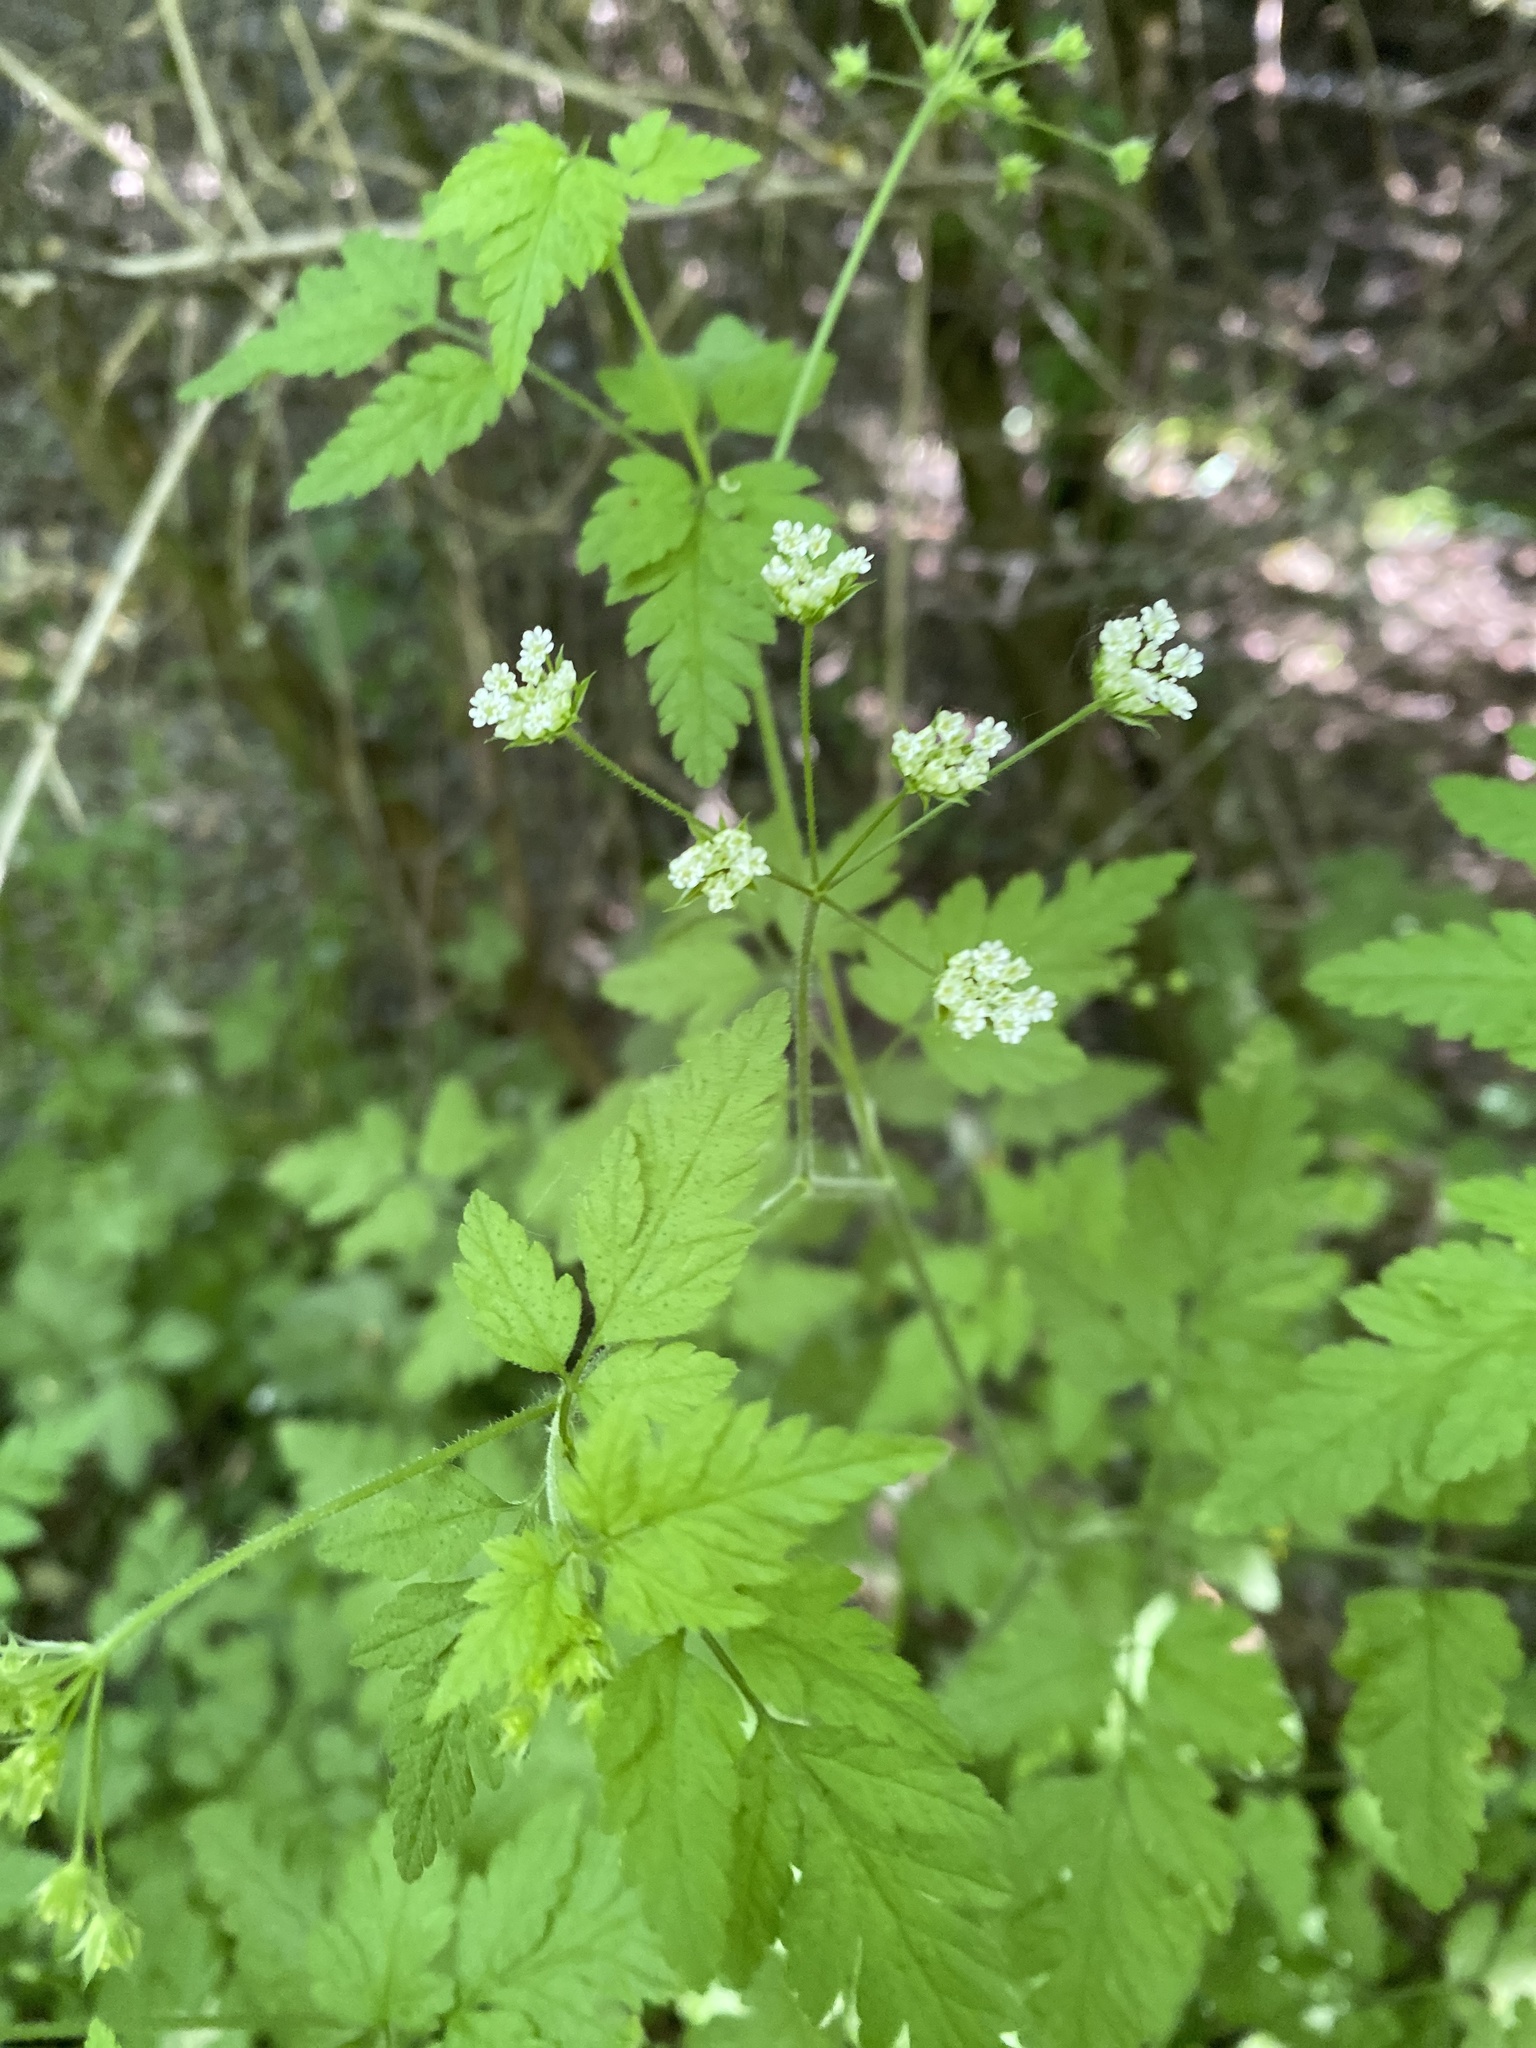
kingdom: Plantae
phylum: Tracheophyta
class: Magnoliopsida
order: Apiales
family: Apiaceae
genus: Chaerophyllum
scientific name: Chaerophyllum temulum
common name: Rough chervil
